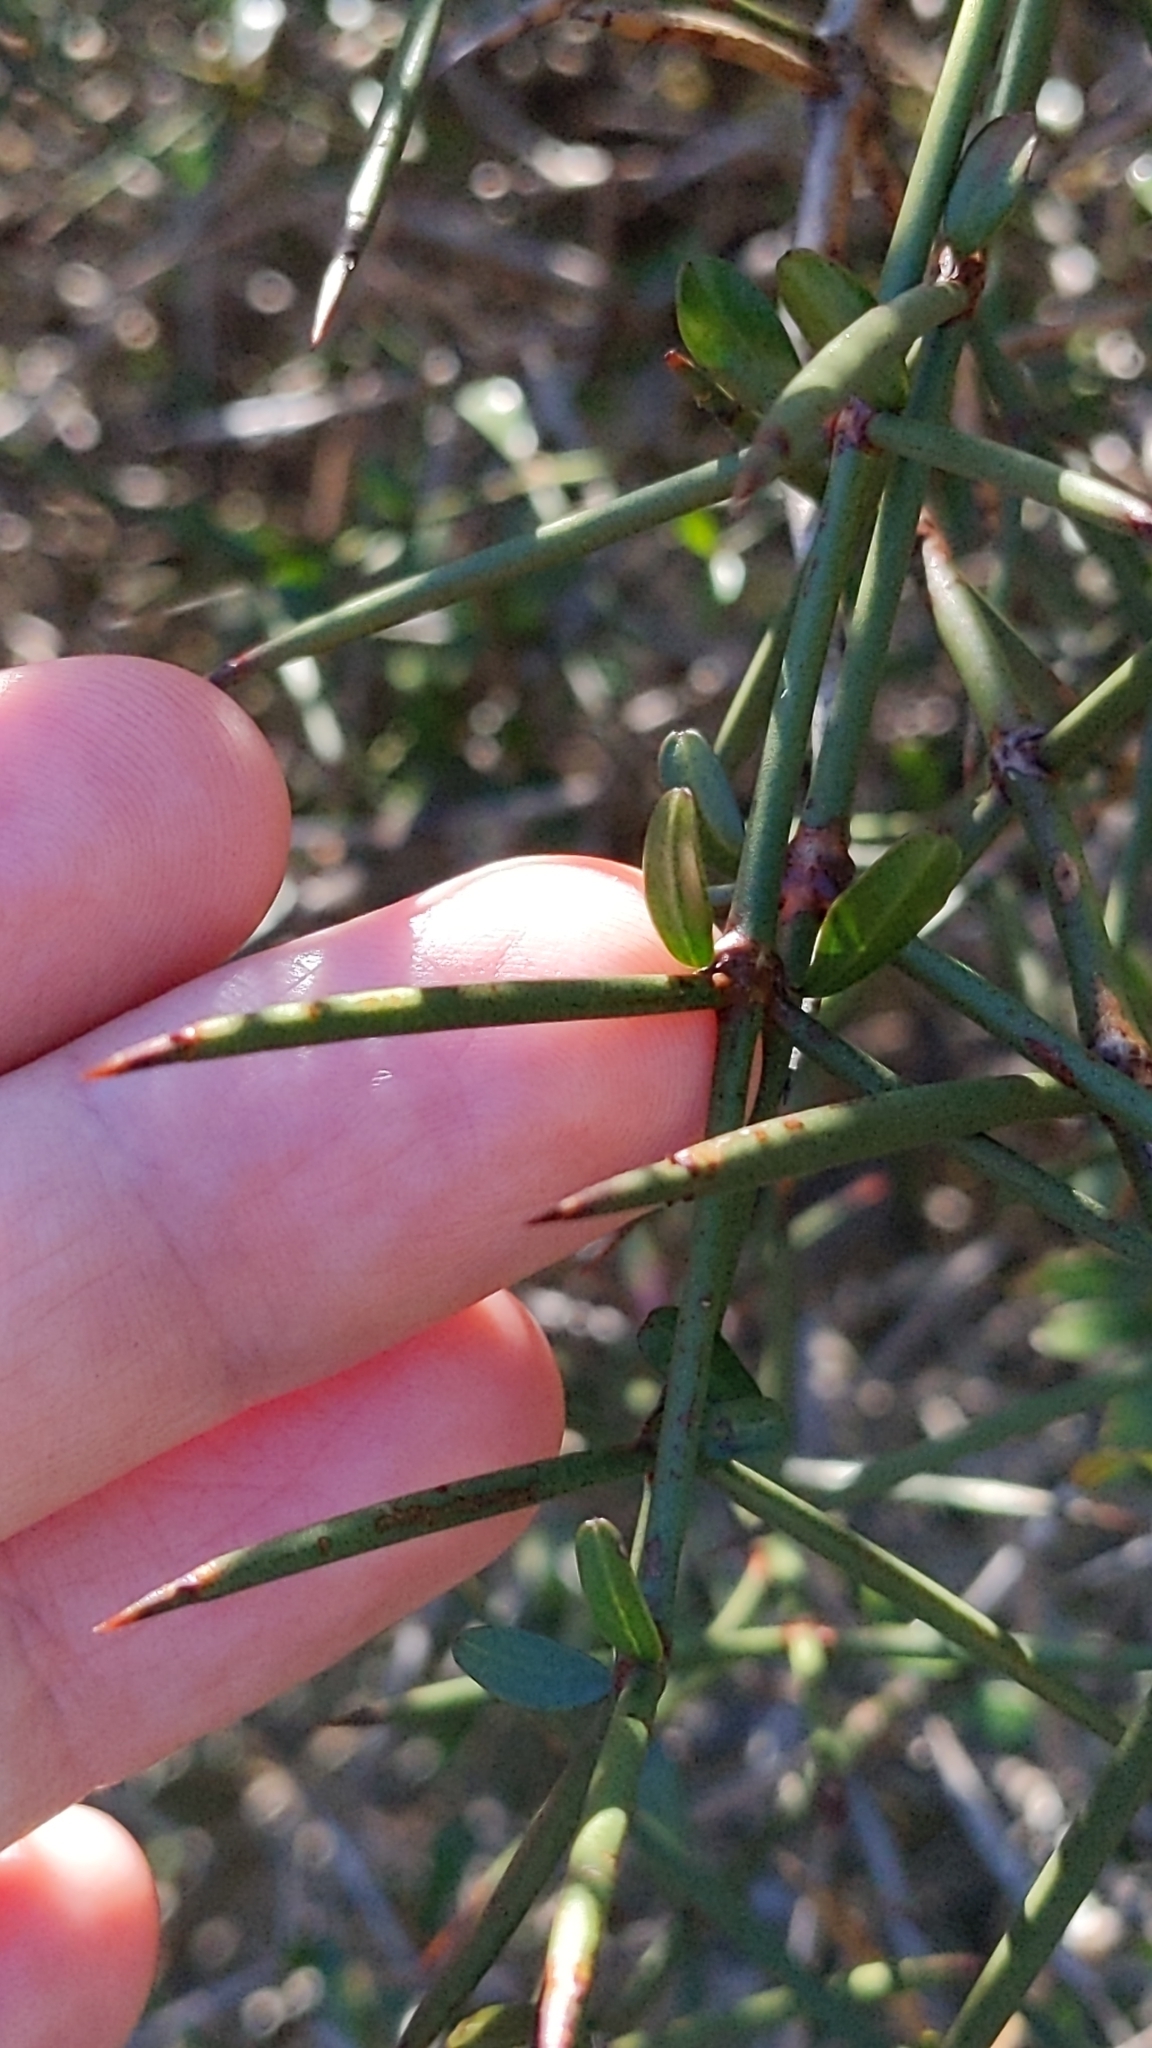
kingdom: Plantae
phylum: Tracheophyta
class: Magnoliopsida
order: Rosales
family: Rhamnaceae
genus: Discaria
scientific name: Discaria toumatou
